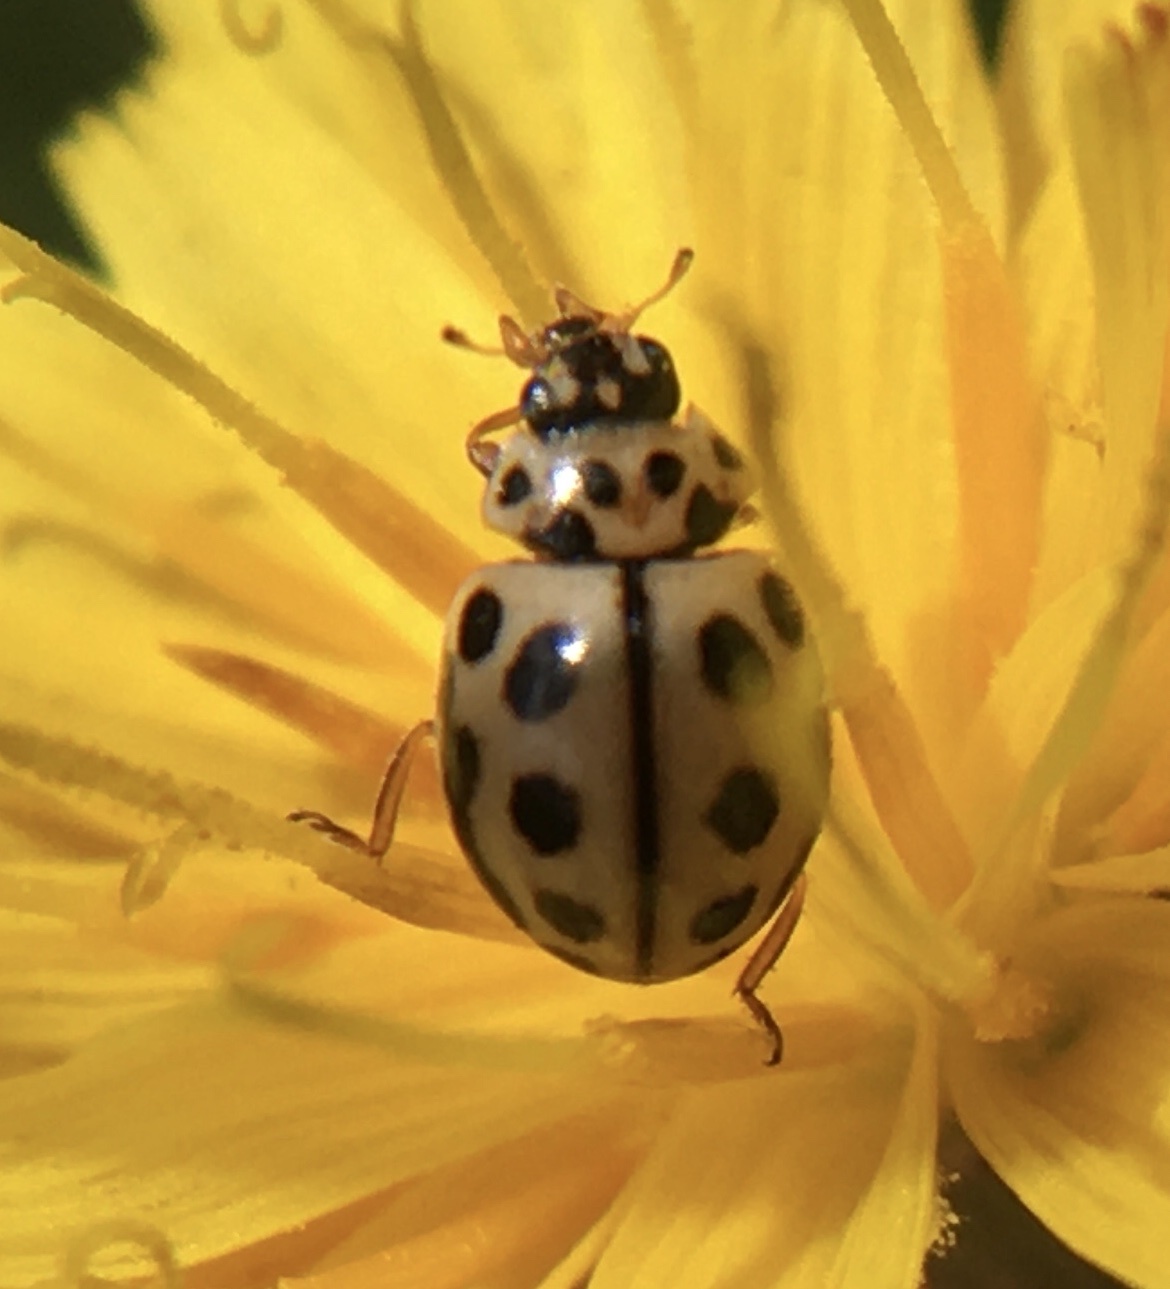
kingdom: Animalia
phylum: Arthropoda
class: Insecta
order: Coleoptera
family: Coccinellidae
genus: Tytthaspis
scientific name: Tytthaspis sedecimpunctata
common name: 16-spot ladybird
